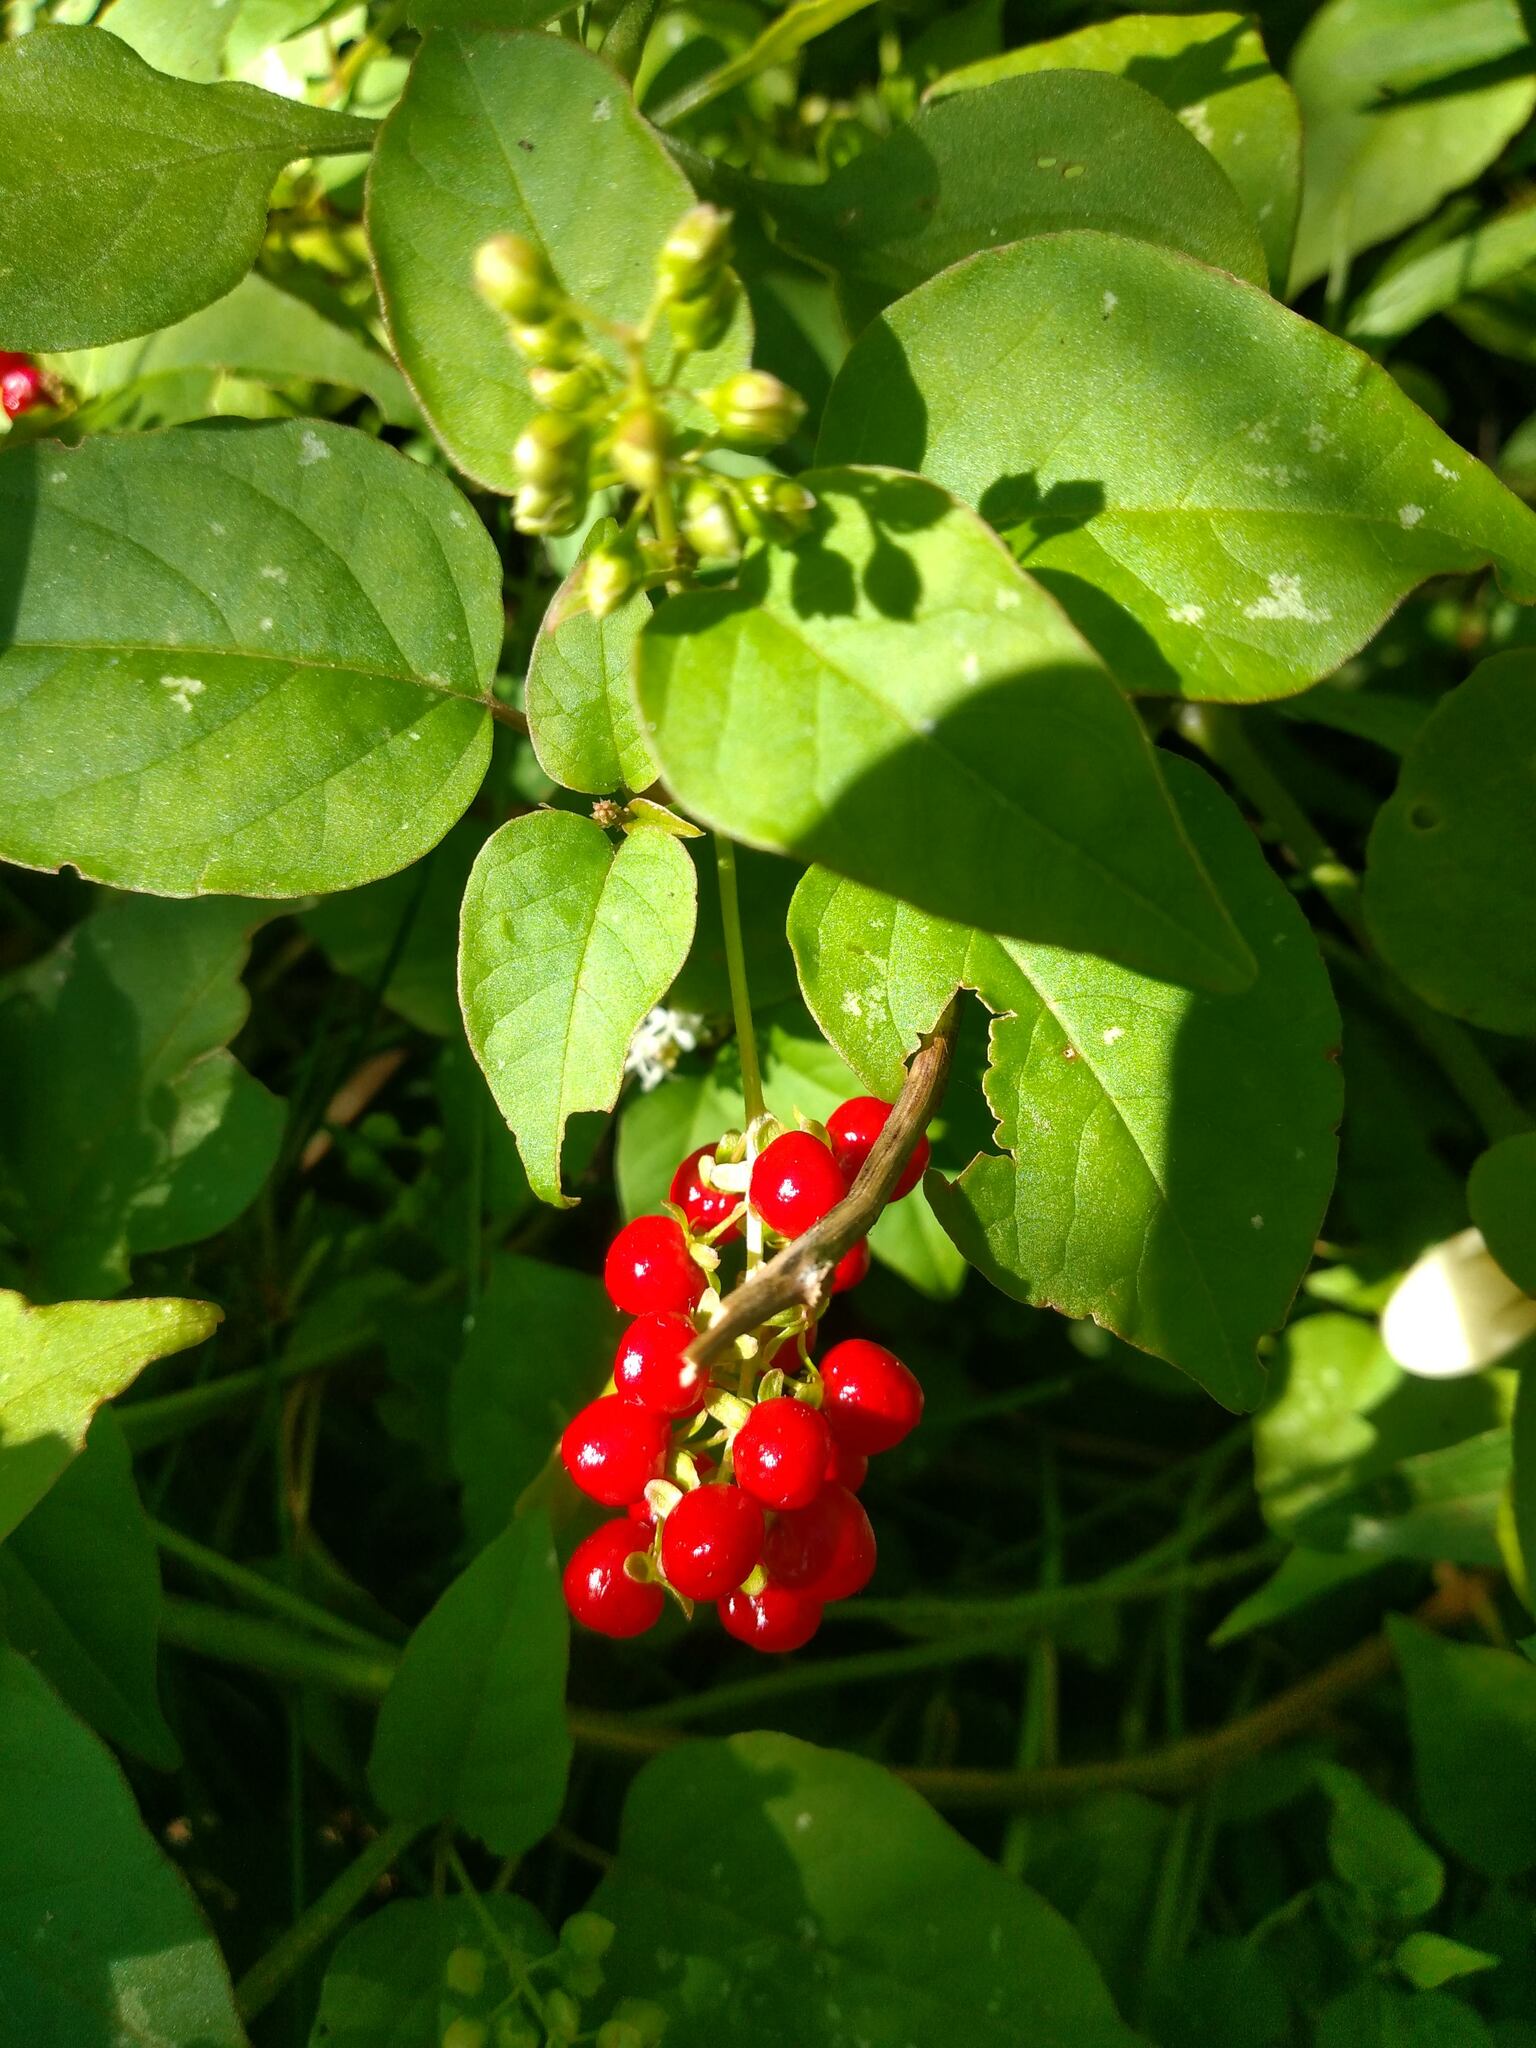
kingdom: Plantae
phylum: Tracheophyta
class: Magnoliopsida
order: Caryophyllales
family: Phytolaccaceae
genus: Rivina
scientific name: Rivina humilis
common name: Rougeplant
